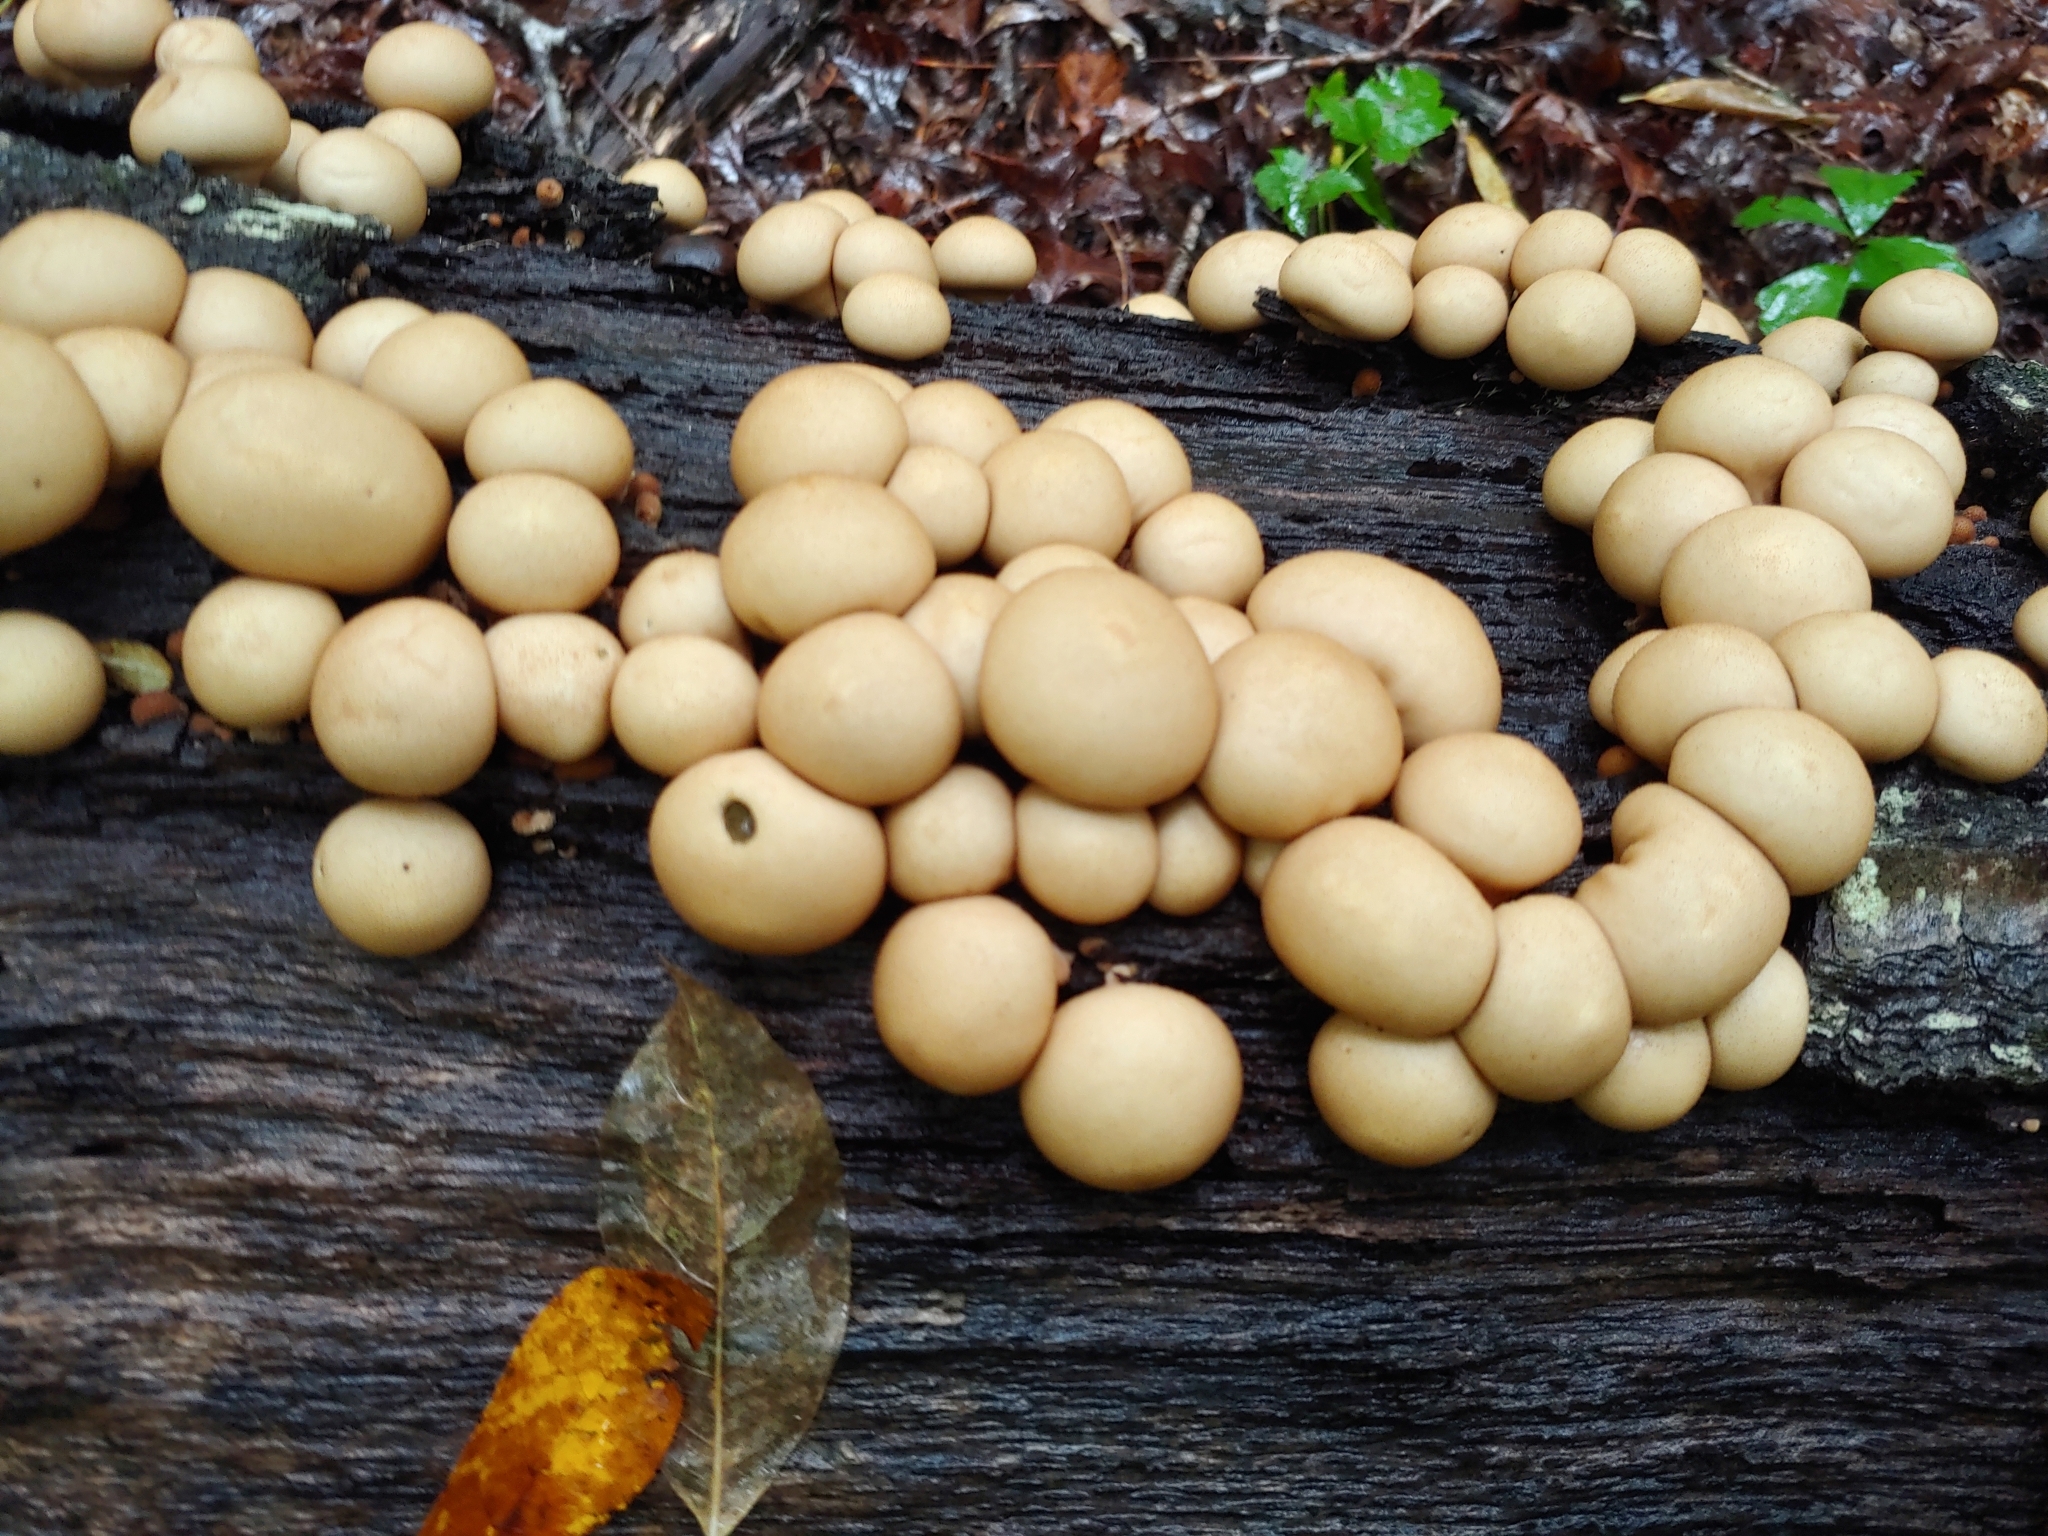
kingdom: Fungi
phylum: Basidiomycota
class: Agaricomycetes
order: Agaricales
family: Lycoperdaceae
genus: Apioperdon
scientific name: Apioperdon pyriforme
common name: Pear-shaped puffball
